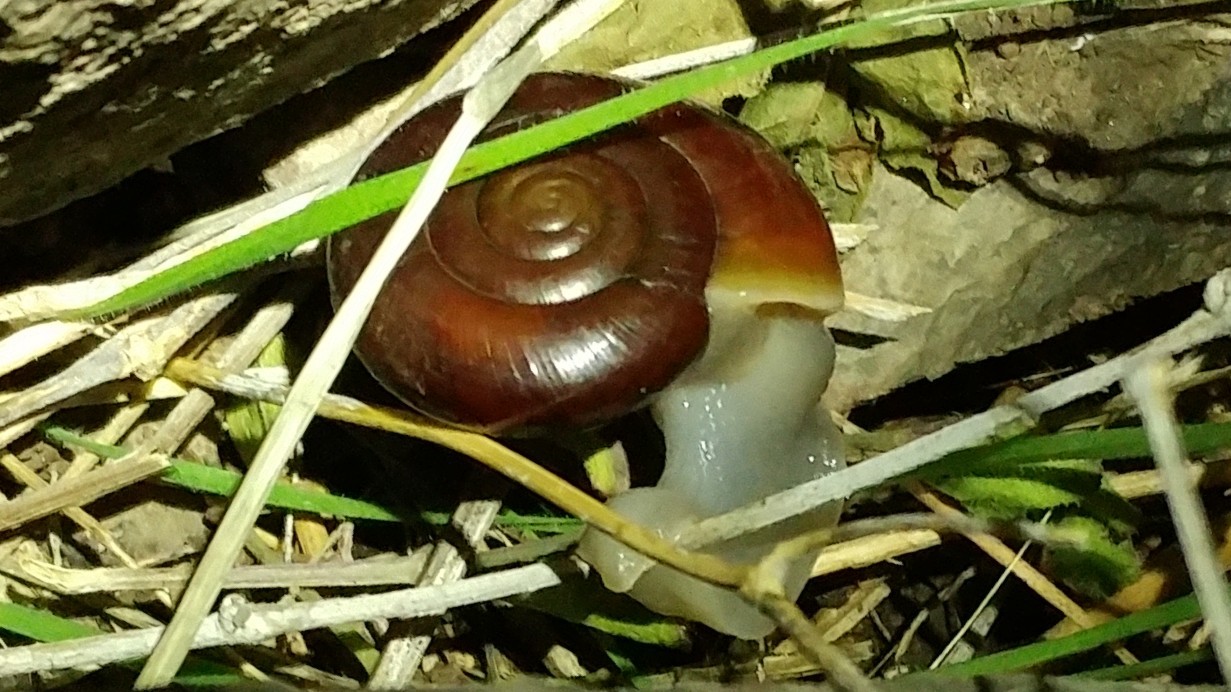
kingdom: Animalia
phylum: Mollusca
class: Gastropoda
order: Stylommatophora
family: Megomphicidae
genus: Glyptostoma
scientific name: Glyptostoma newberryanum
